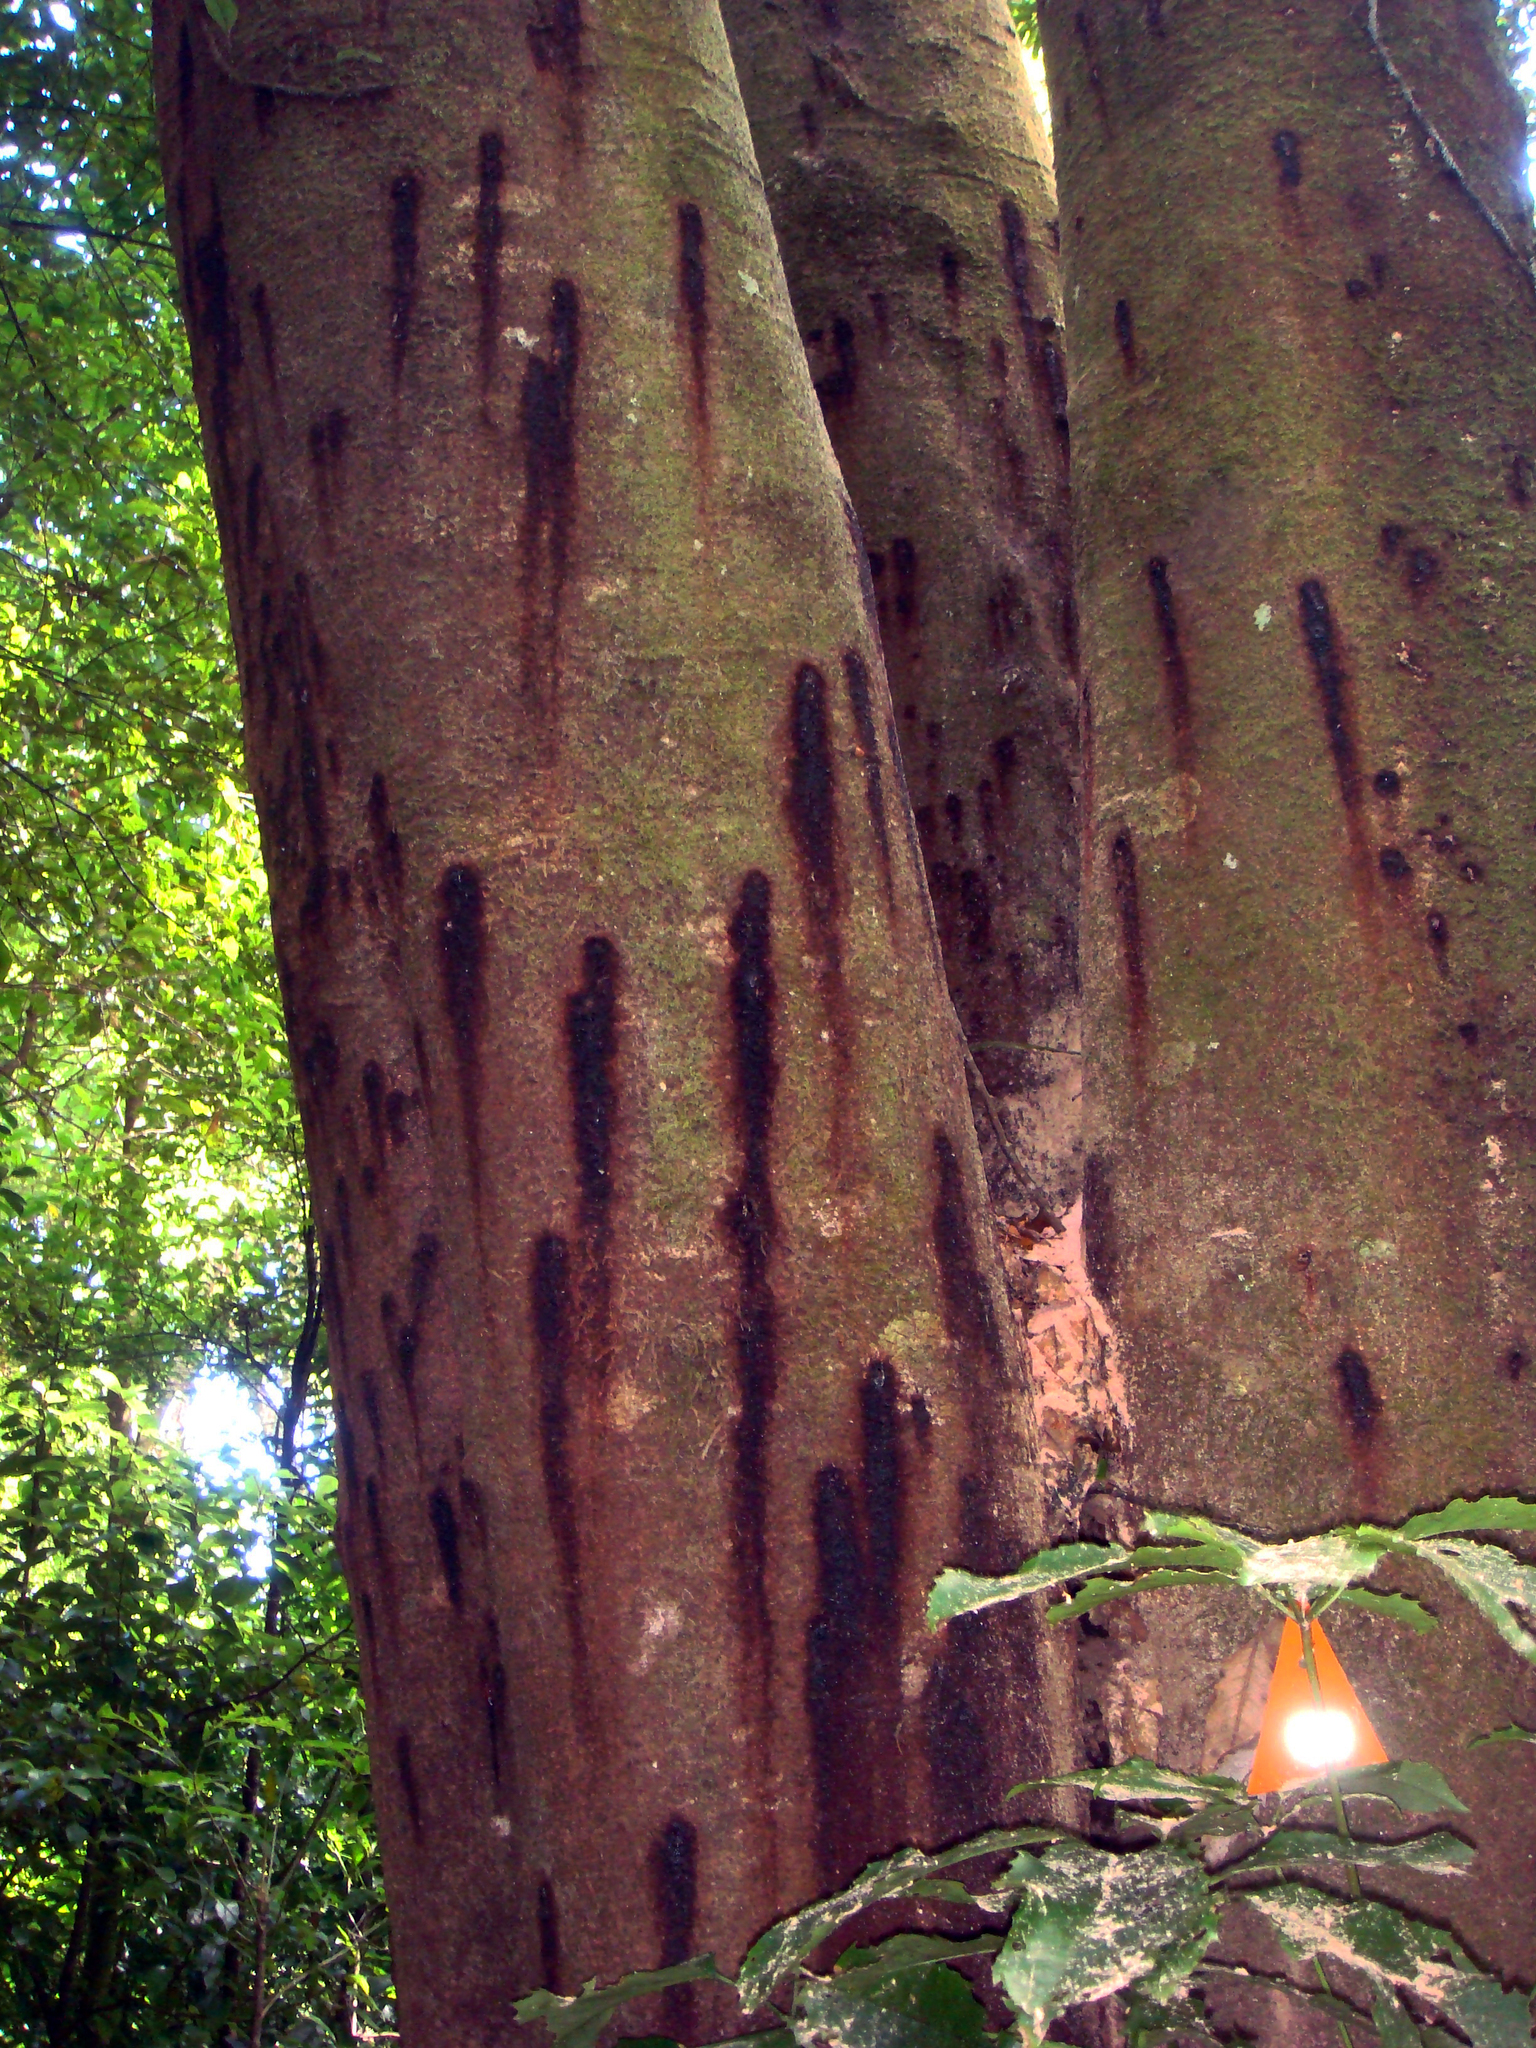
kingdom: Animalia
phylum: Arthropoda
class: Insecta
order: Coleoptera
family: Brentidae
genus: Lasiorhynchus
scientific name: Lasiorhynchus barbicornis
